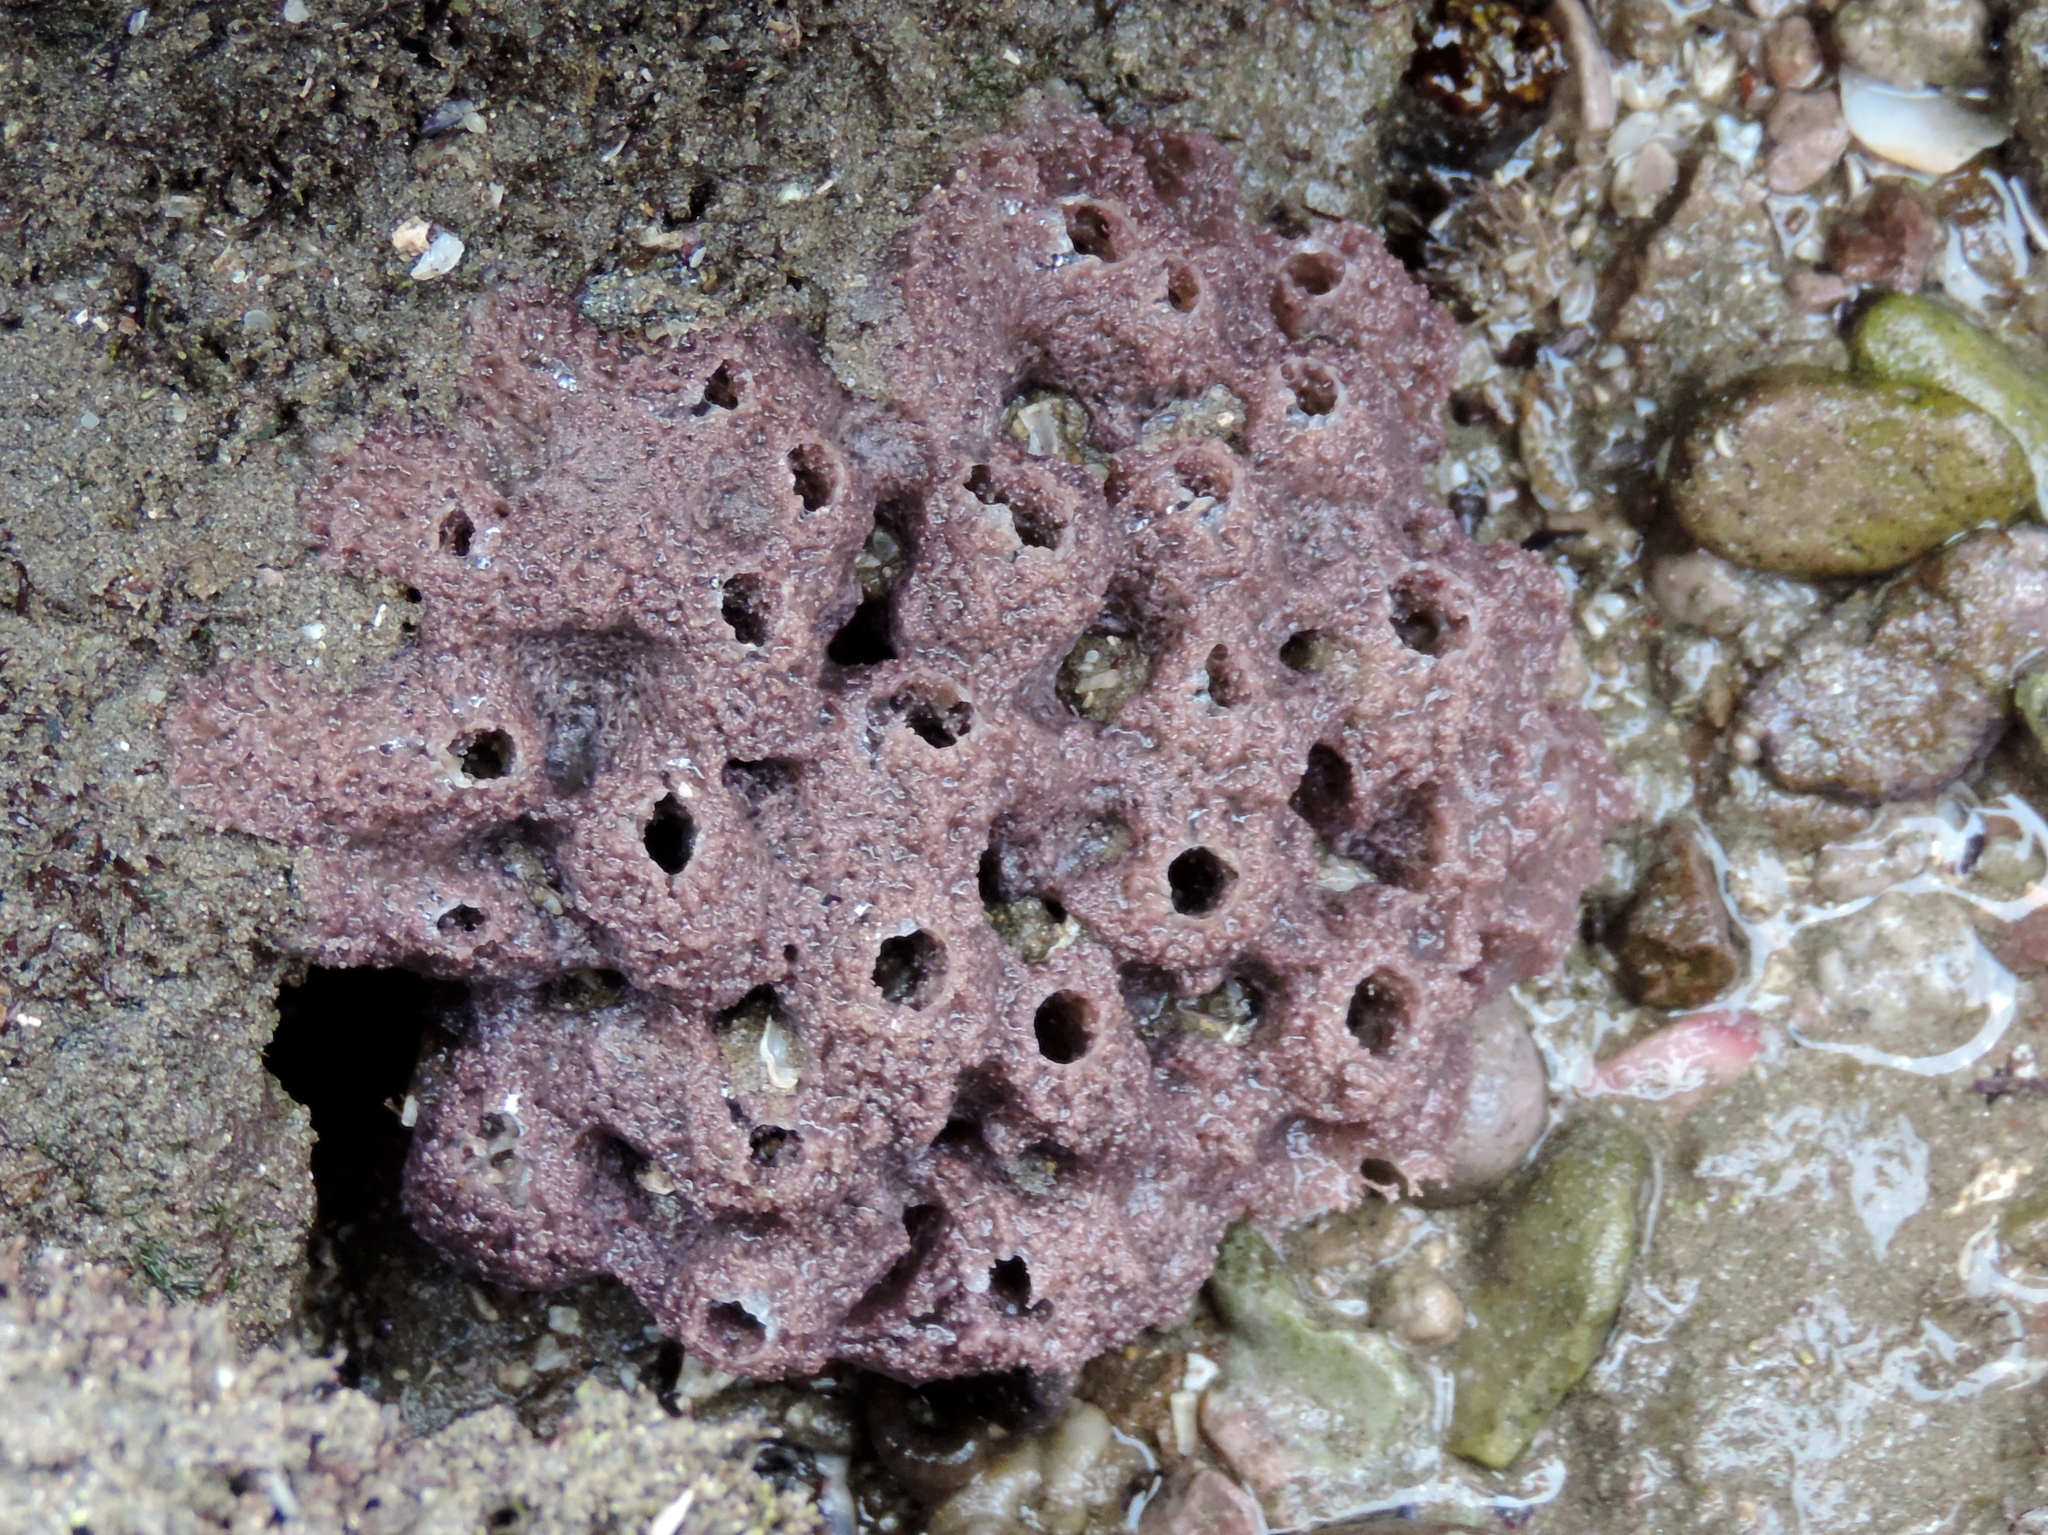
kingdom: Animalia
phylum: Porifera
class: Demospongiae
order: Haplosclerida
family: Chalinidae
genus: Haliclona
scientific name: Haliclona caerulea
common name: Blue caribbean sponge
